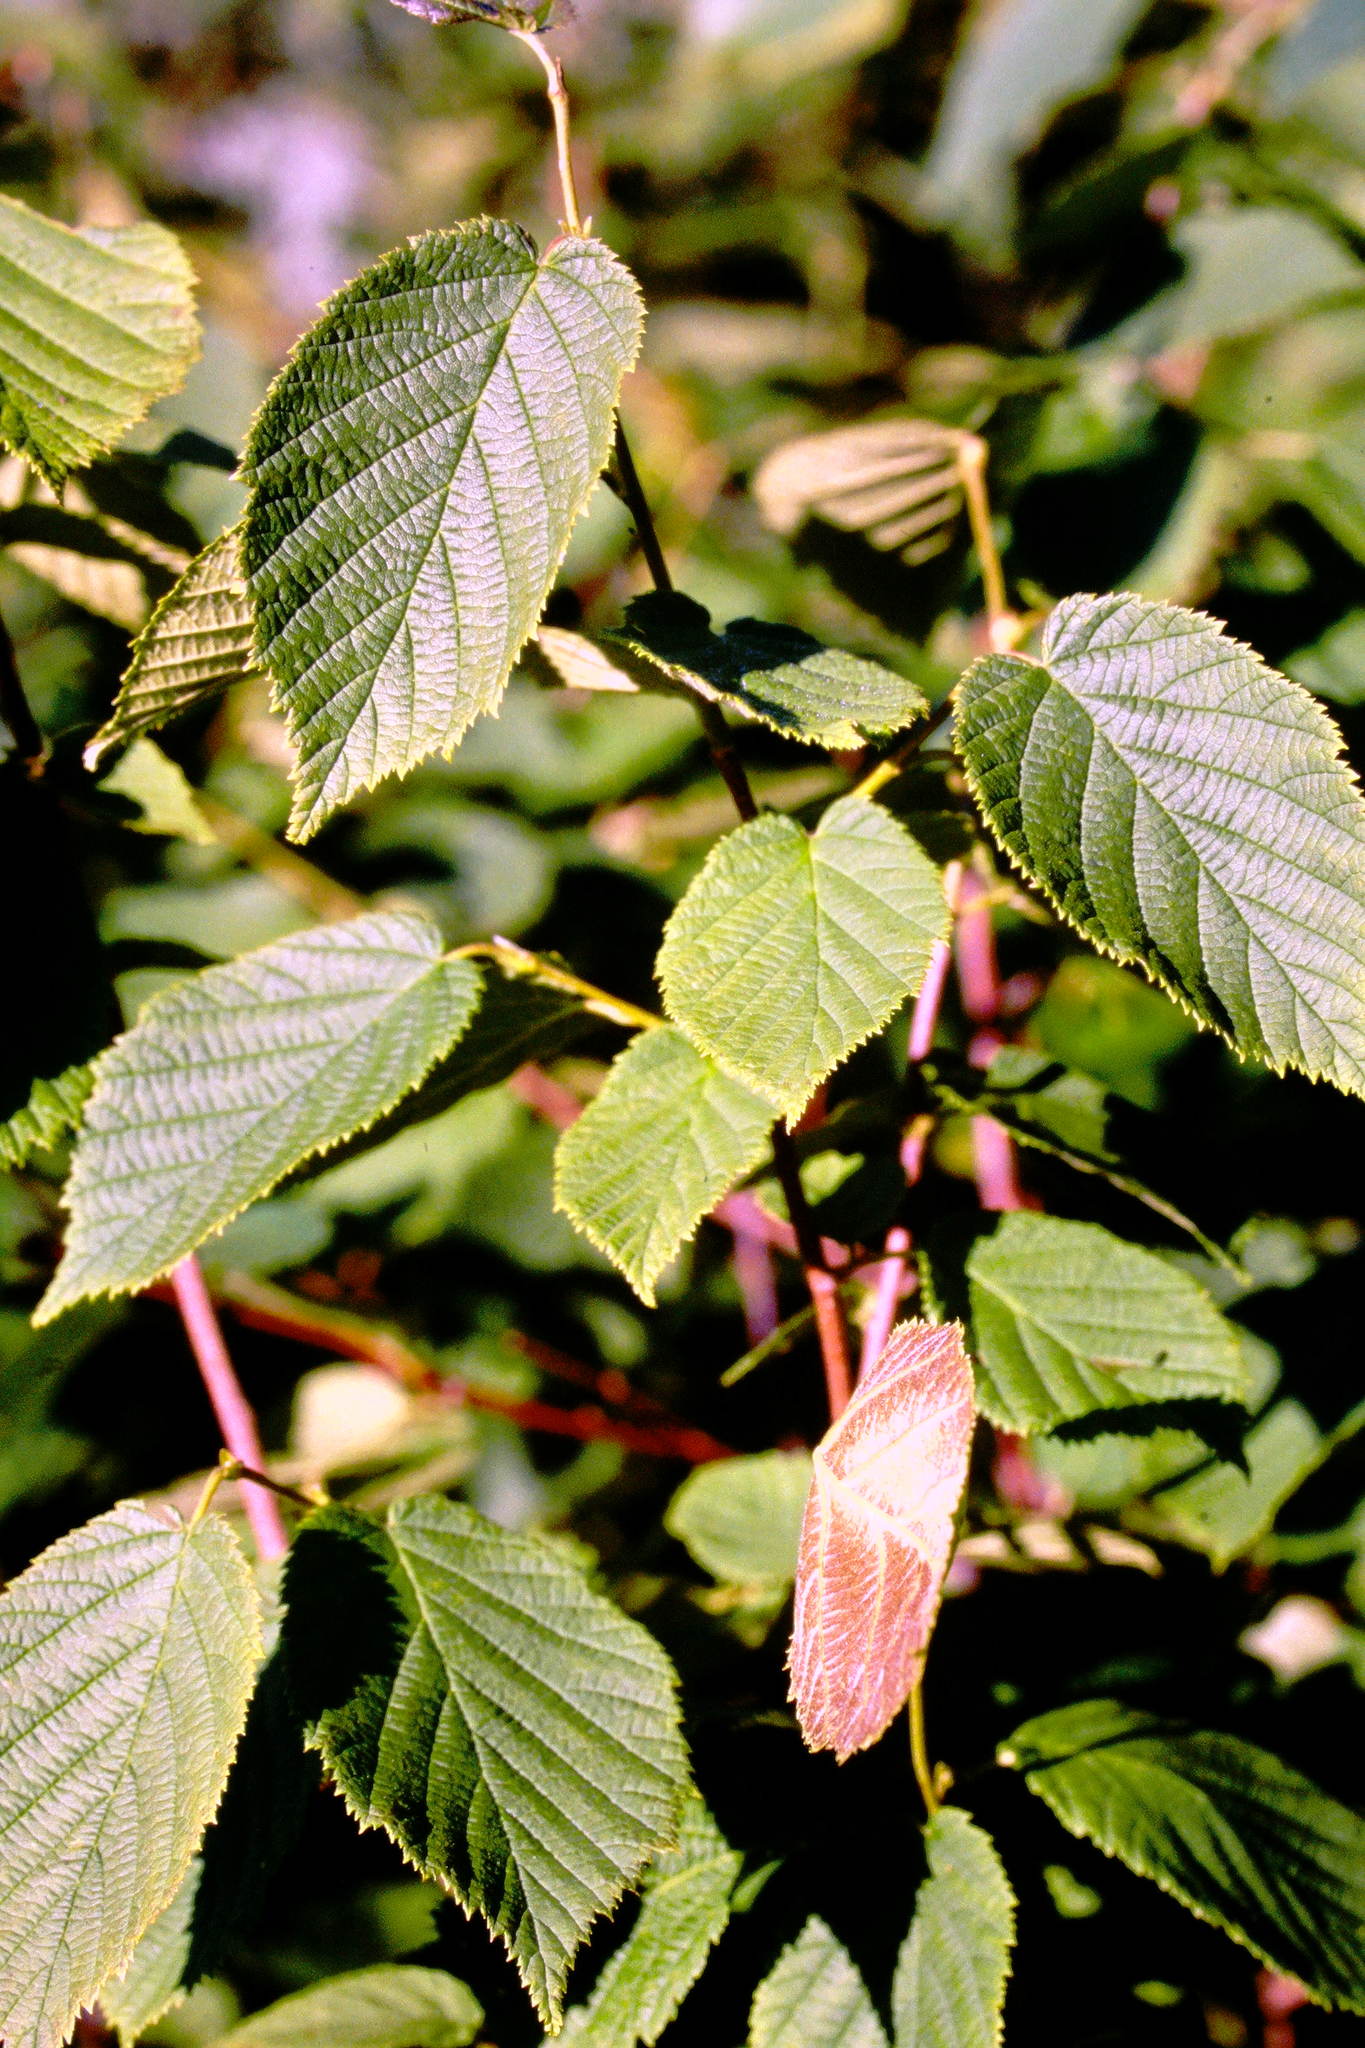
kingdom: Plantae
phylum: Tracheophyta
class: Magnoliopsida
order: Fagales
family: Betulaceae
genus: Corylus
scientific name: Corylus cornuta
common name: Beaked hazel
